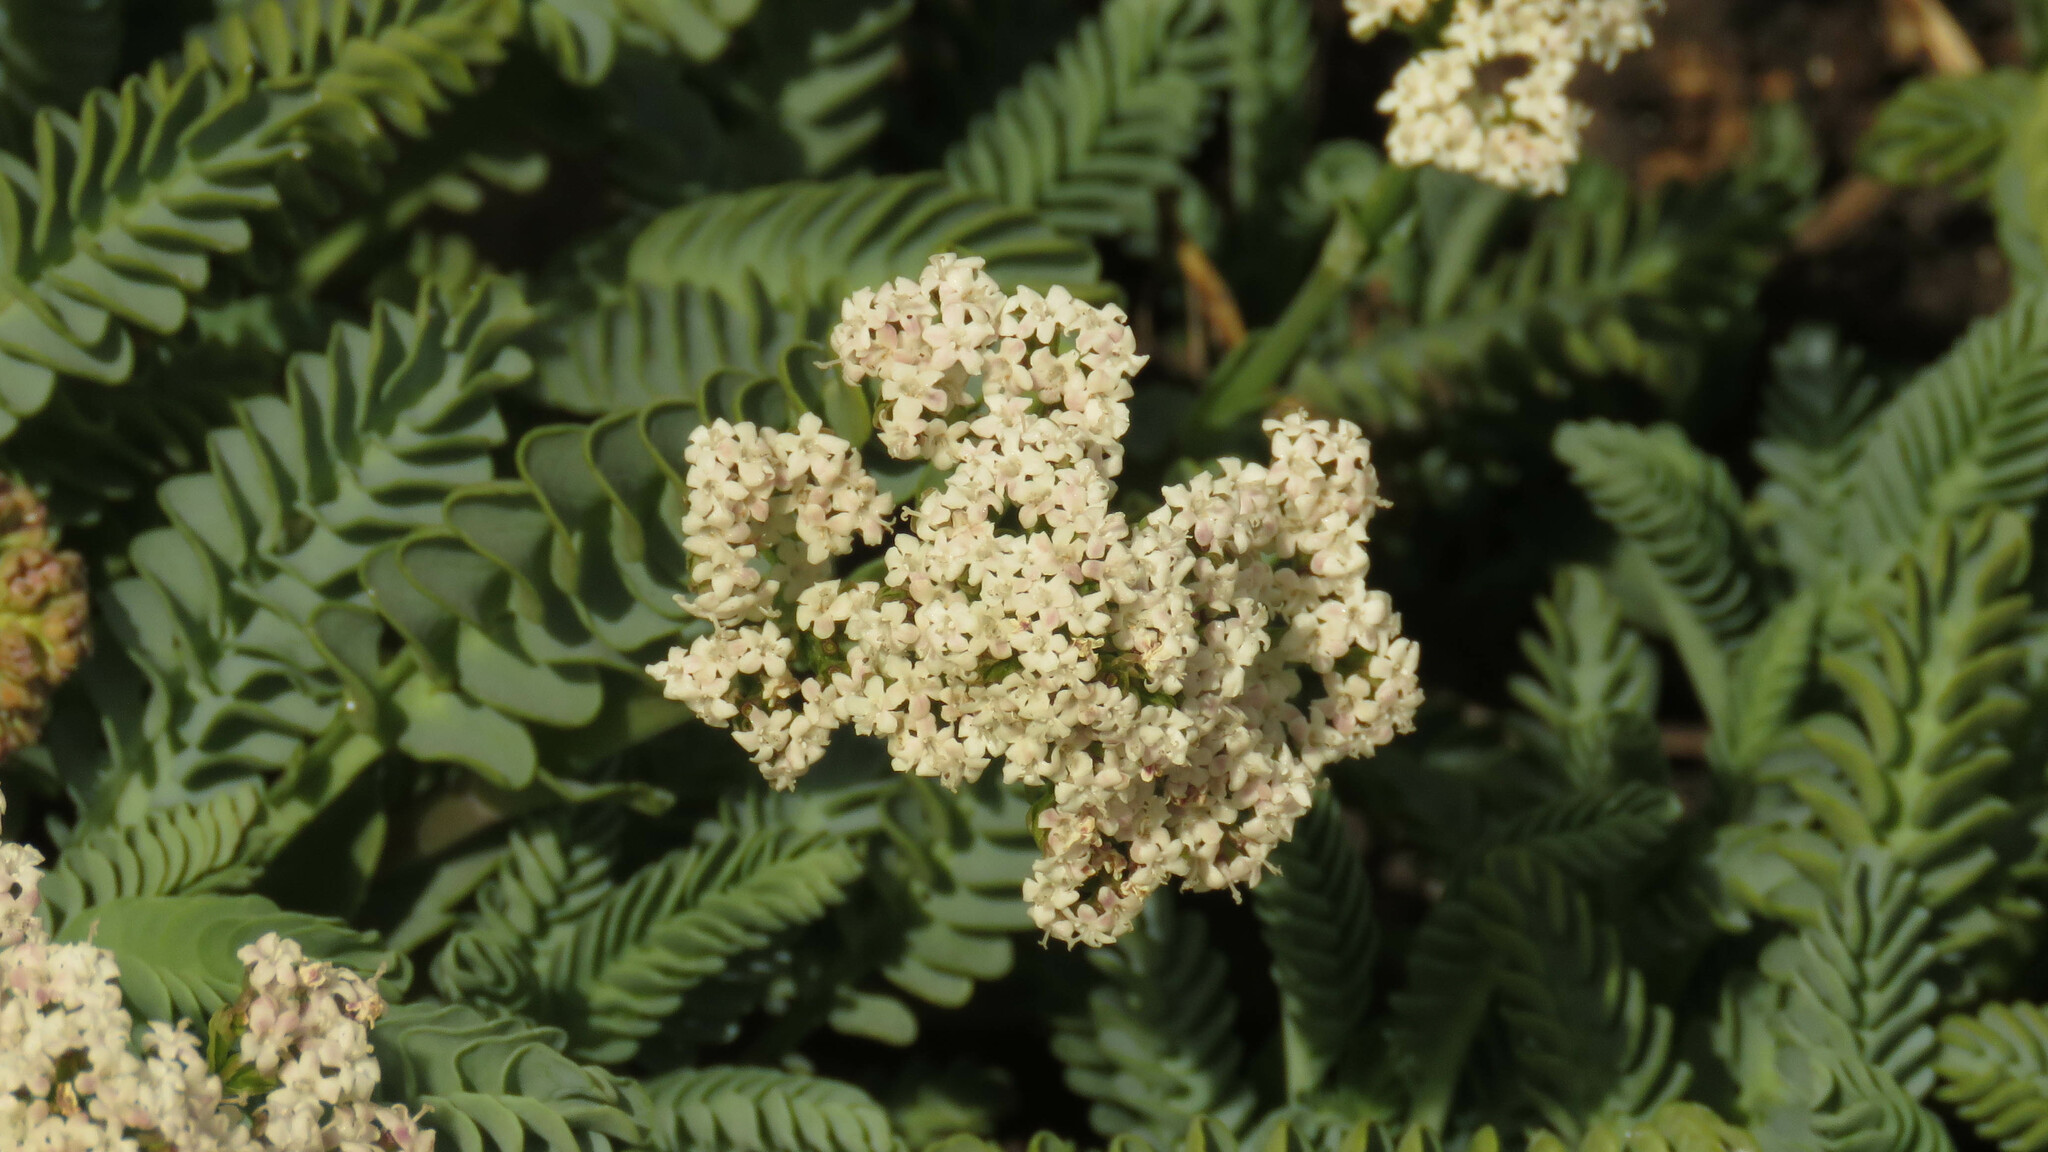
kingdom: Plantae
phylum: Tracheophyta
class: Magnoliopsida
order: Dipsacales
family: Caprifoliaceae
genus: Valeriana
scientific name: Valeriana philippiana
